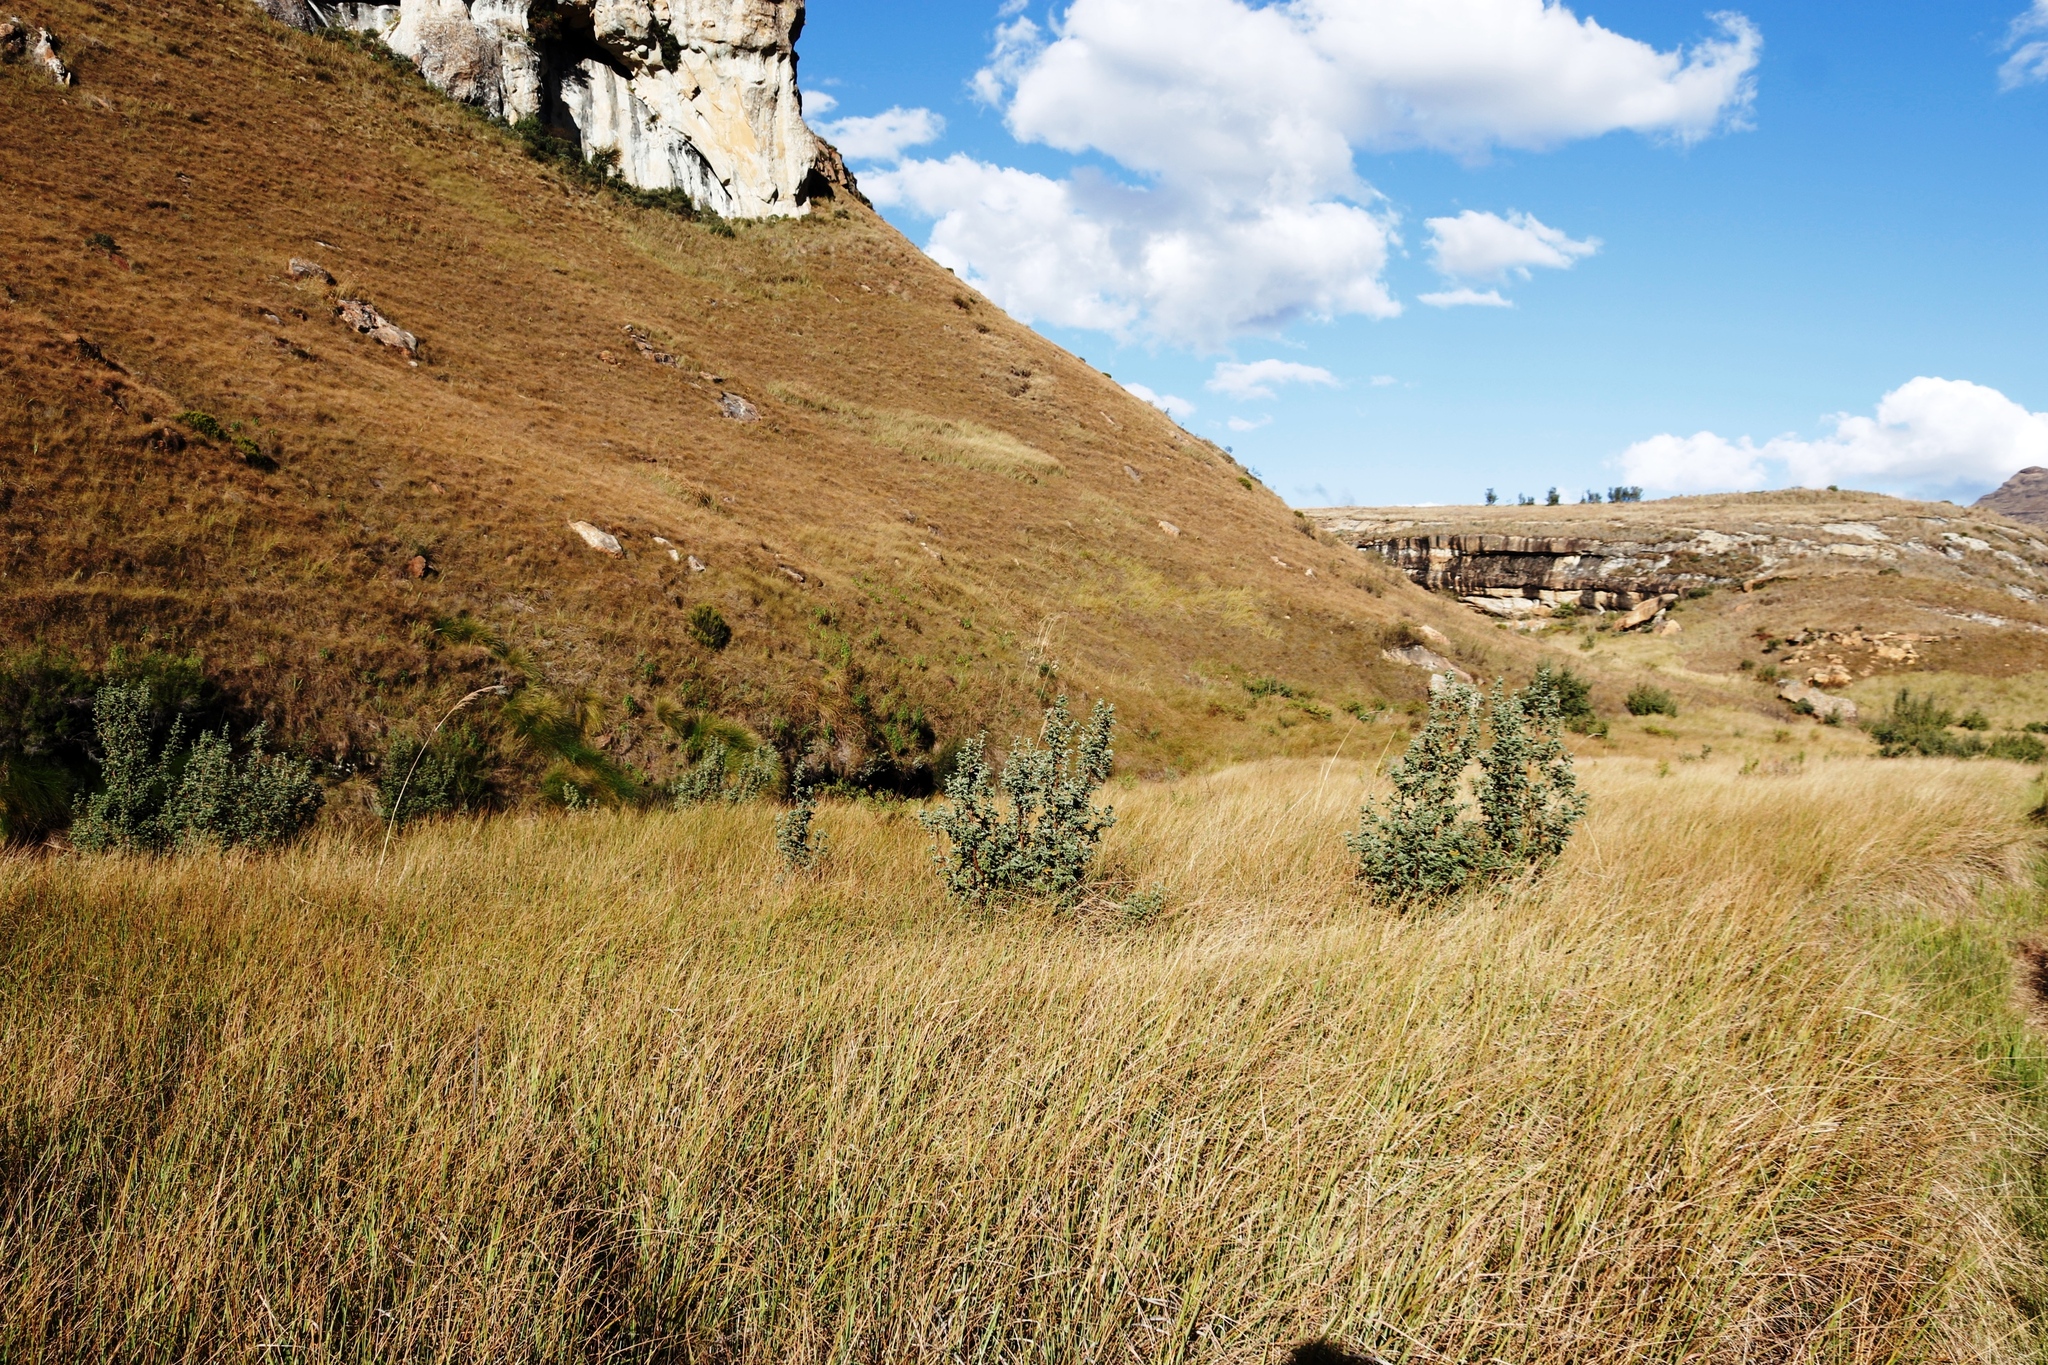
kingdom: Plantae
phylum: Tracheophyta
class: Magnoliopsida
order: Rosales
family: Rosaceae
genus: Leucosidea
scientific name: Leucosidea sericea
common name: Oldwood
